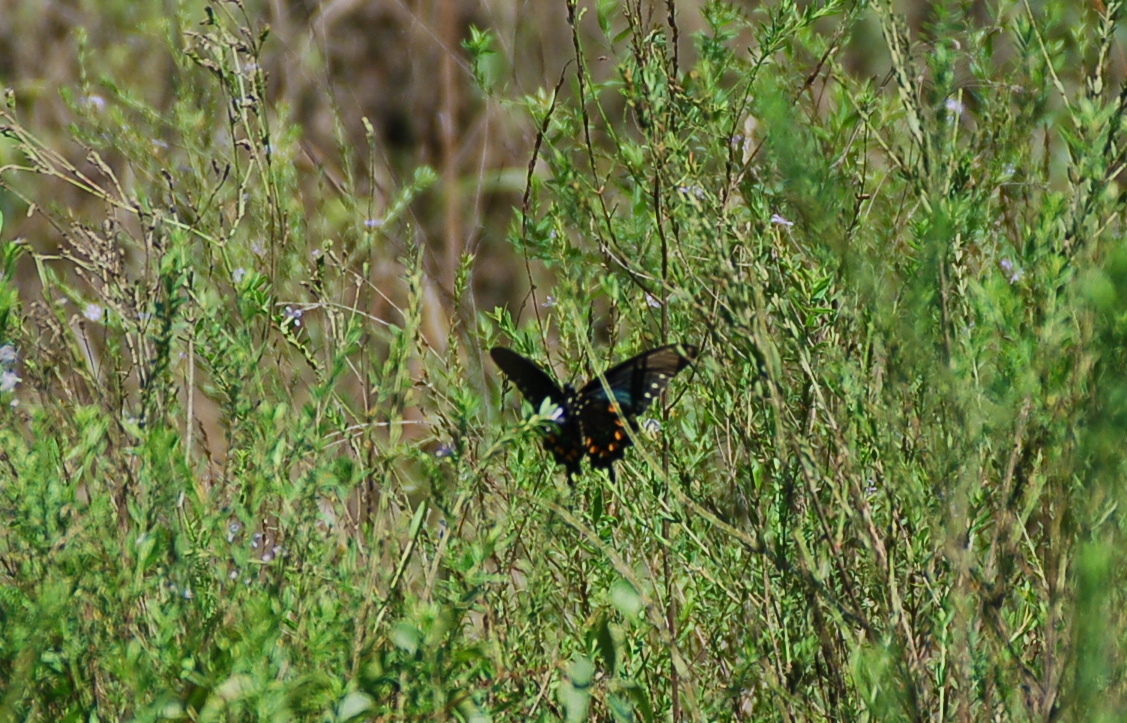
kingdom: Animalia
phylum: Arthropoda
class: Insecta
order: Lepidoptera
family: Papilionidae
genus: Battus
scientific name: Battus philenor
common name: Pipevine swallowtail
